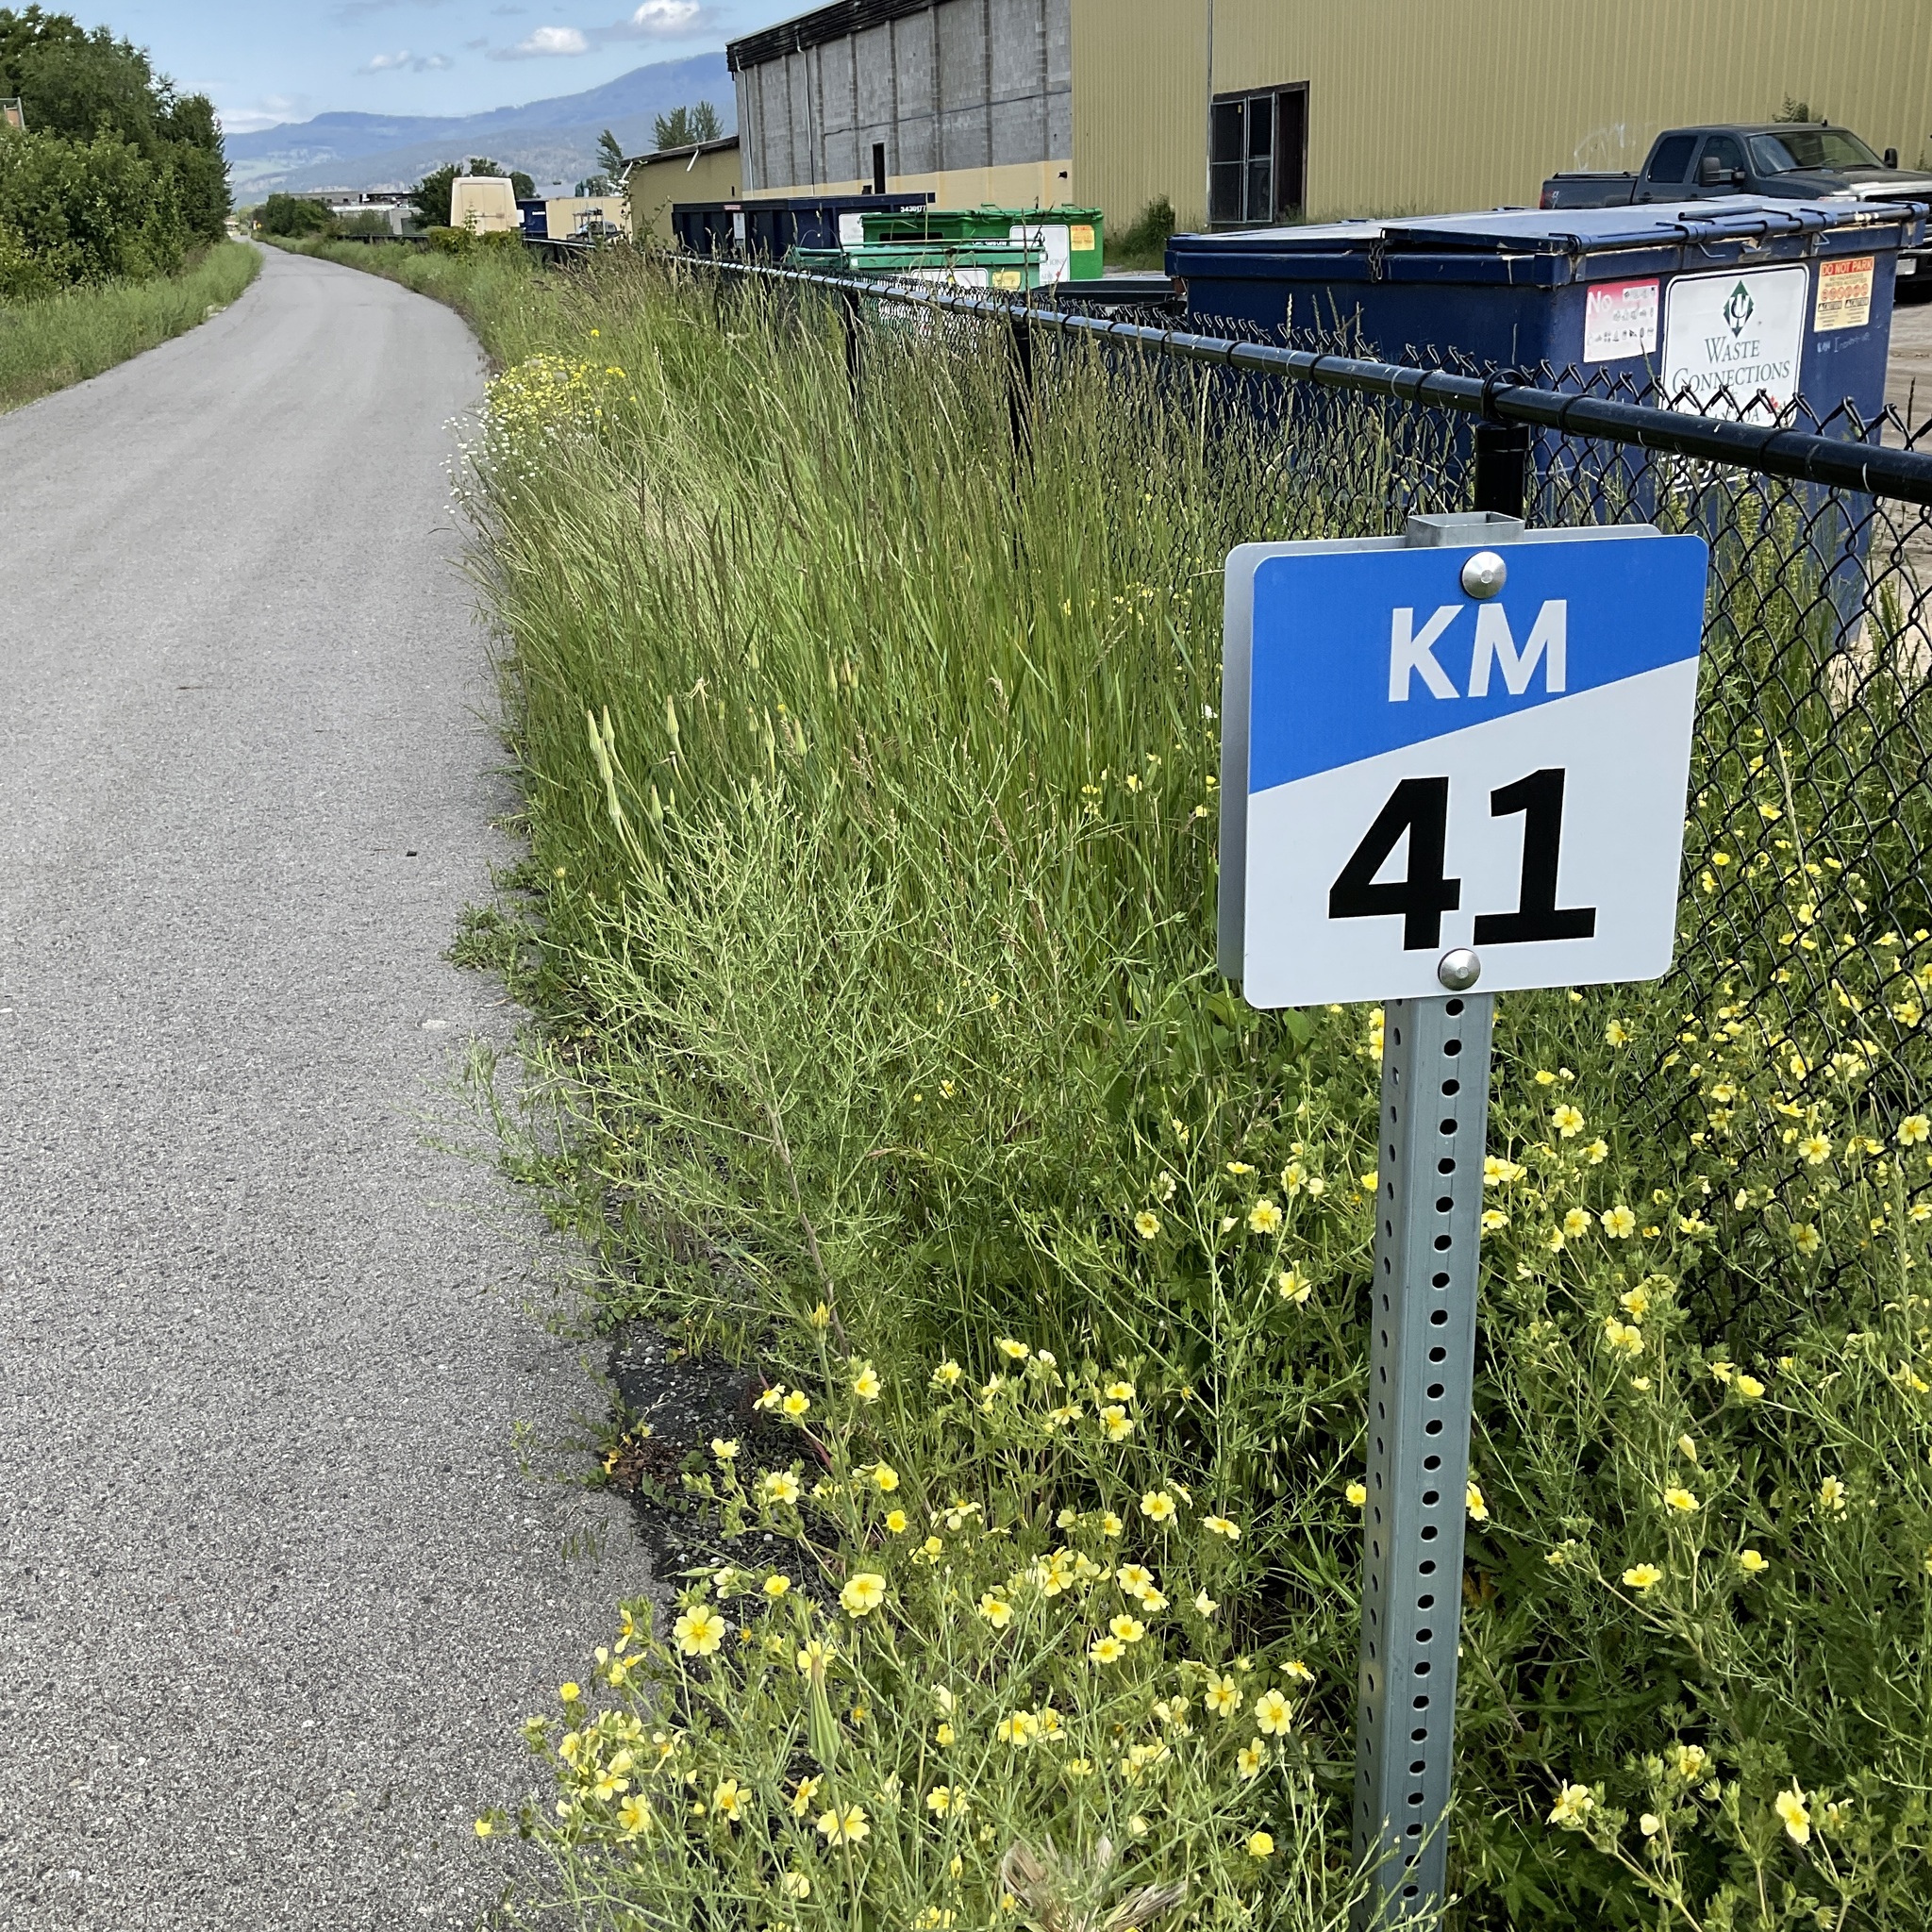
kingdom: Plantae
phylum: Tracheophyta
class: Magnoliopsida
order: Rosales
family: Rosaceae
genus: Potentilla
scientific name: Potentilla recta
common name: Sulphur cinquefoil
